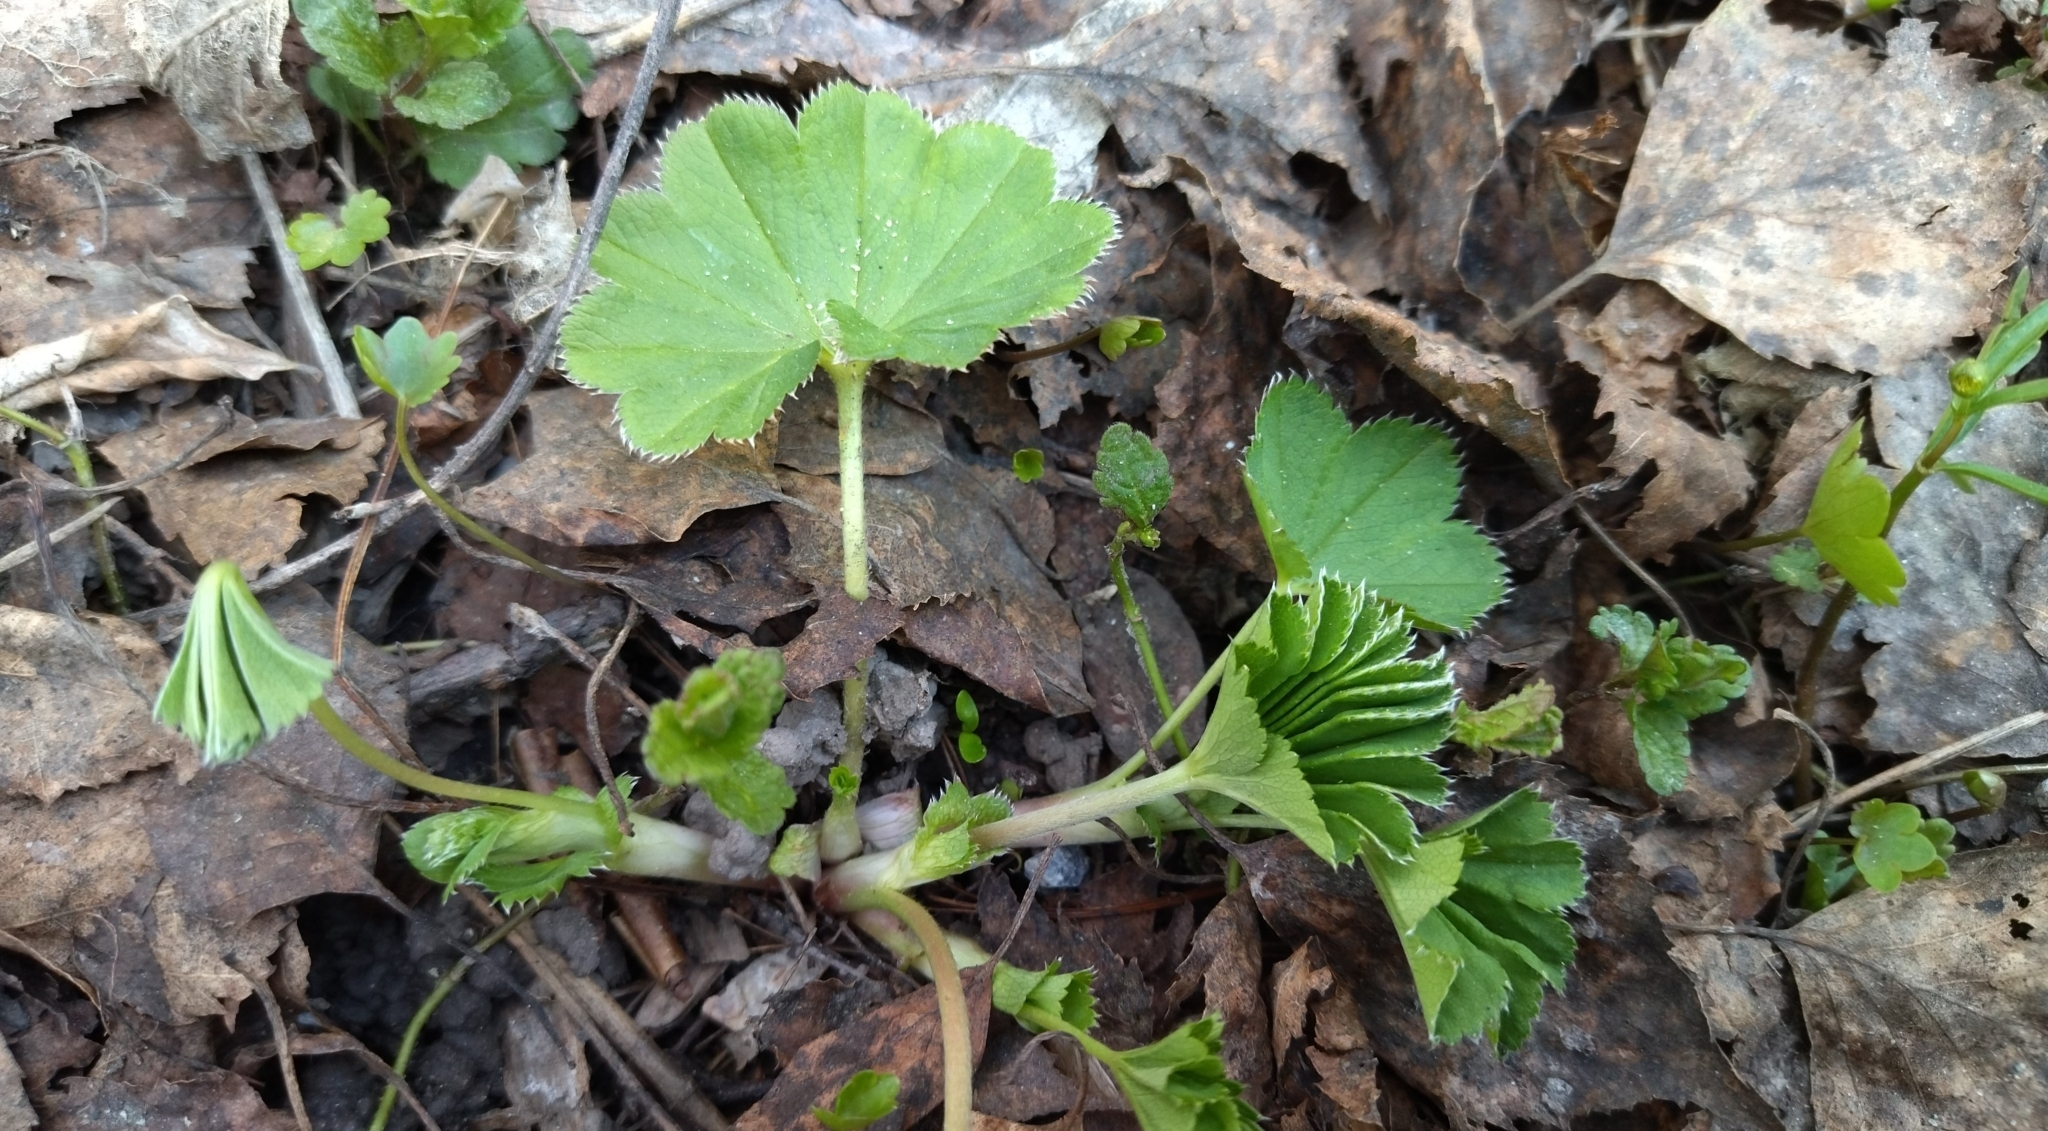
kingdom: Plantae
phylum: Tracheophyta
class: Magnoliopsida
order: Rosales
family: Rosaceae
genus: Alchemilla
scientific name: Alchemilla
